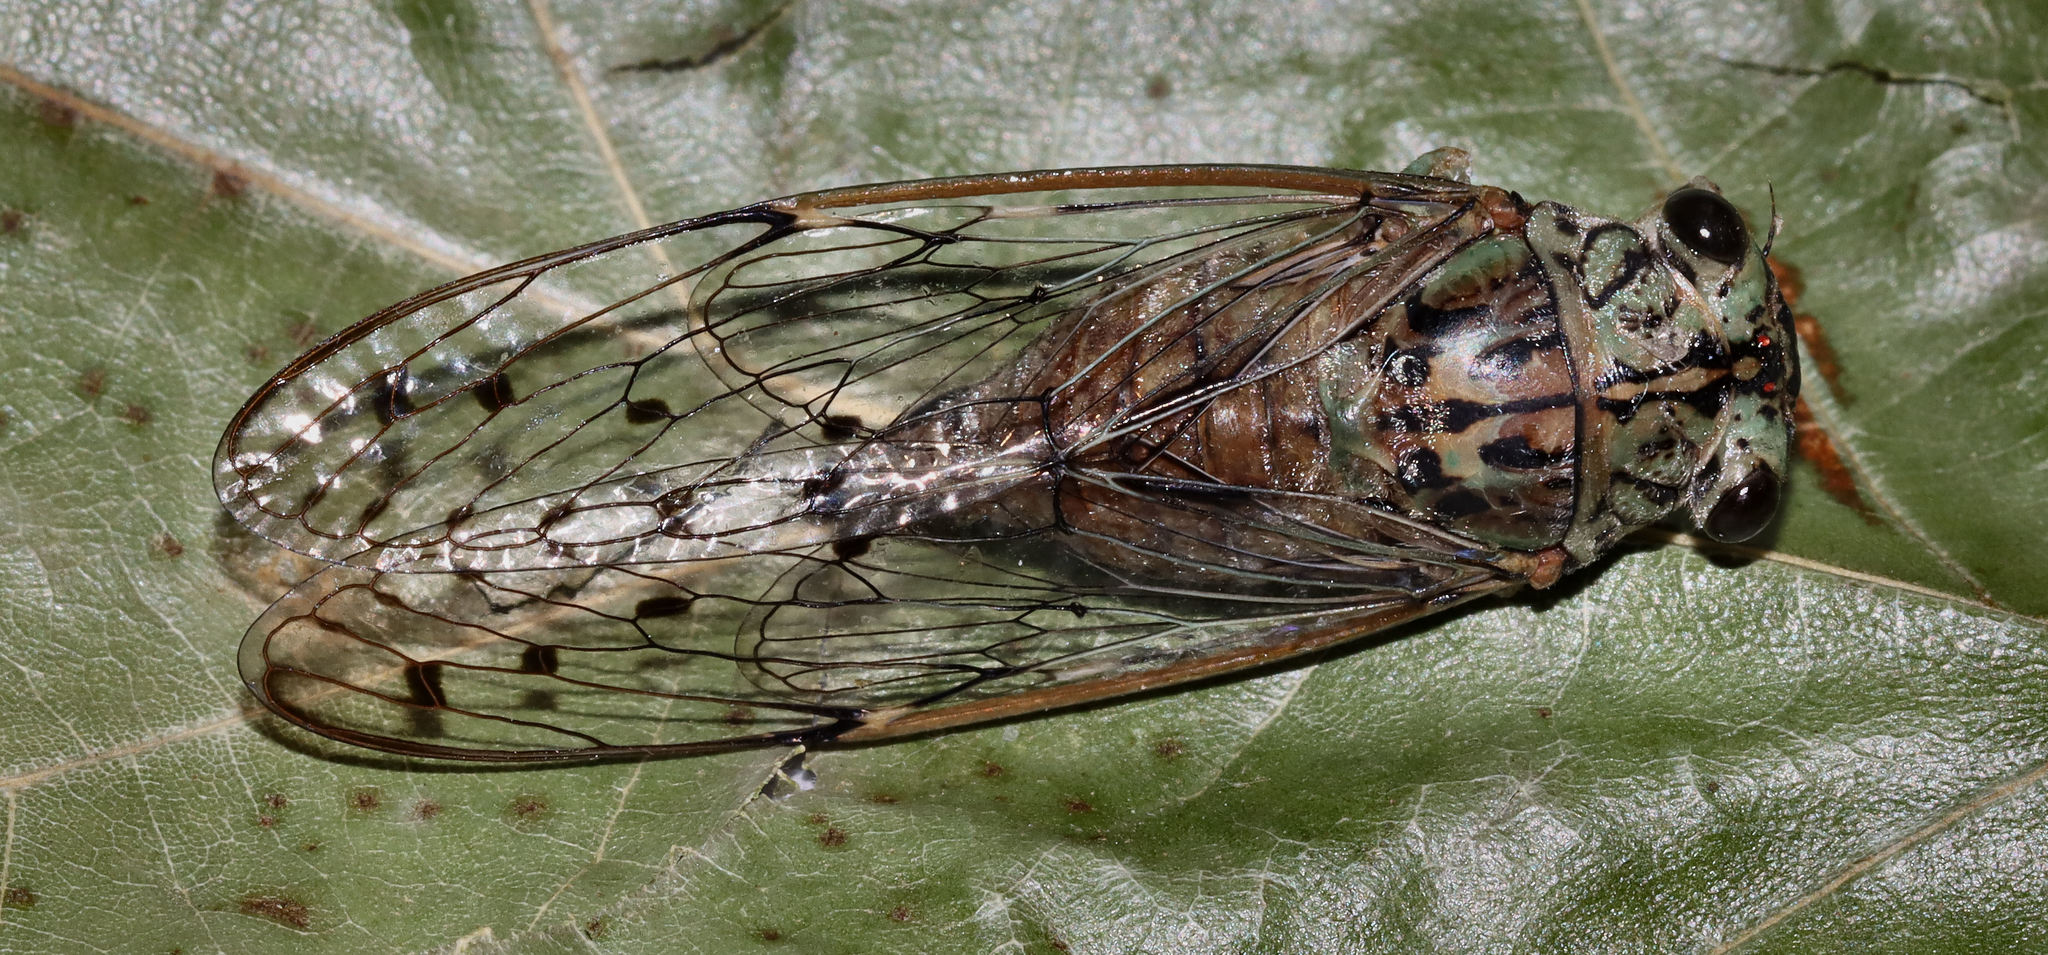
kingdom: Animalia
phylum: Arthropoda
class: Insecta
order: Hemiptera
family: Cicadidae
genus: Neocicada
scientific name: Neocicada hieroglyphica
